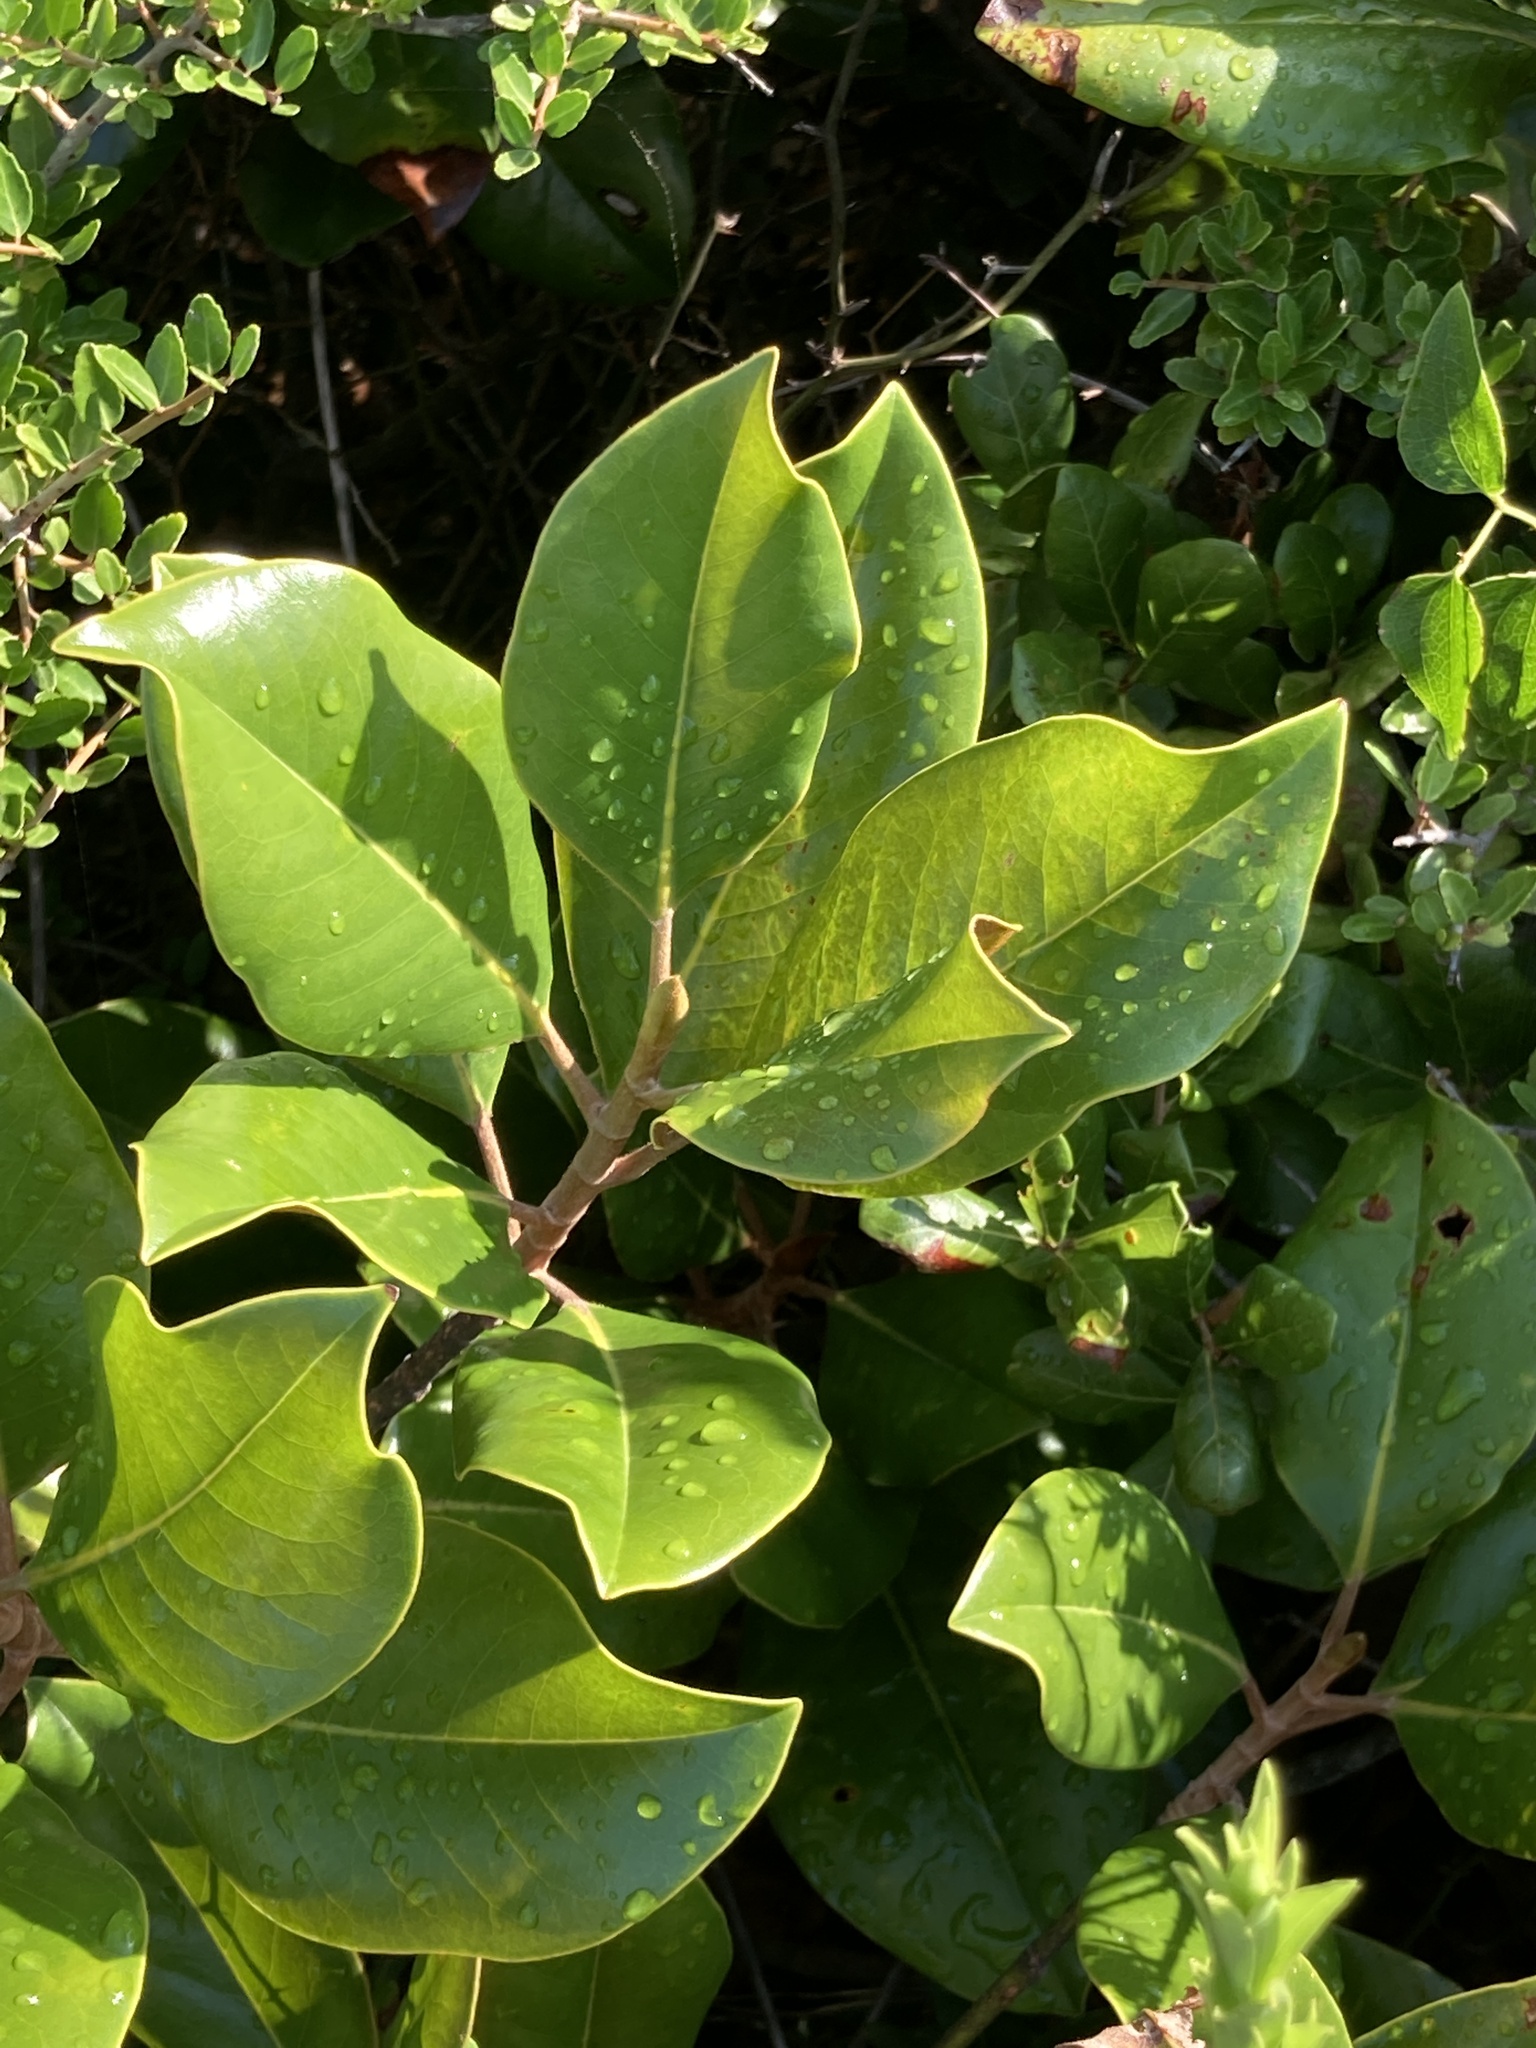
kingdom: Plantae
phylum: Tracheophyta
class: Magnoliopsida
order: Magnoliales
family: Magnoliaceae
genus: Magnolia
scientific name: Magnolia grandiflora
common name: Southern magnolia
